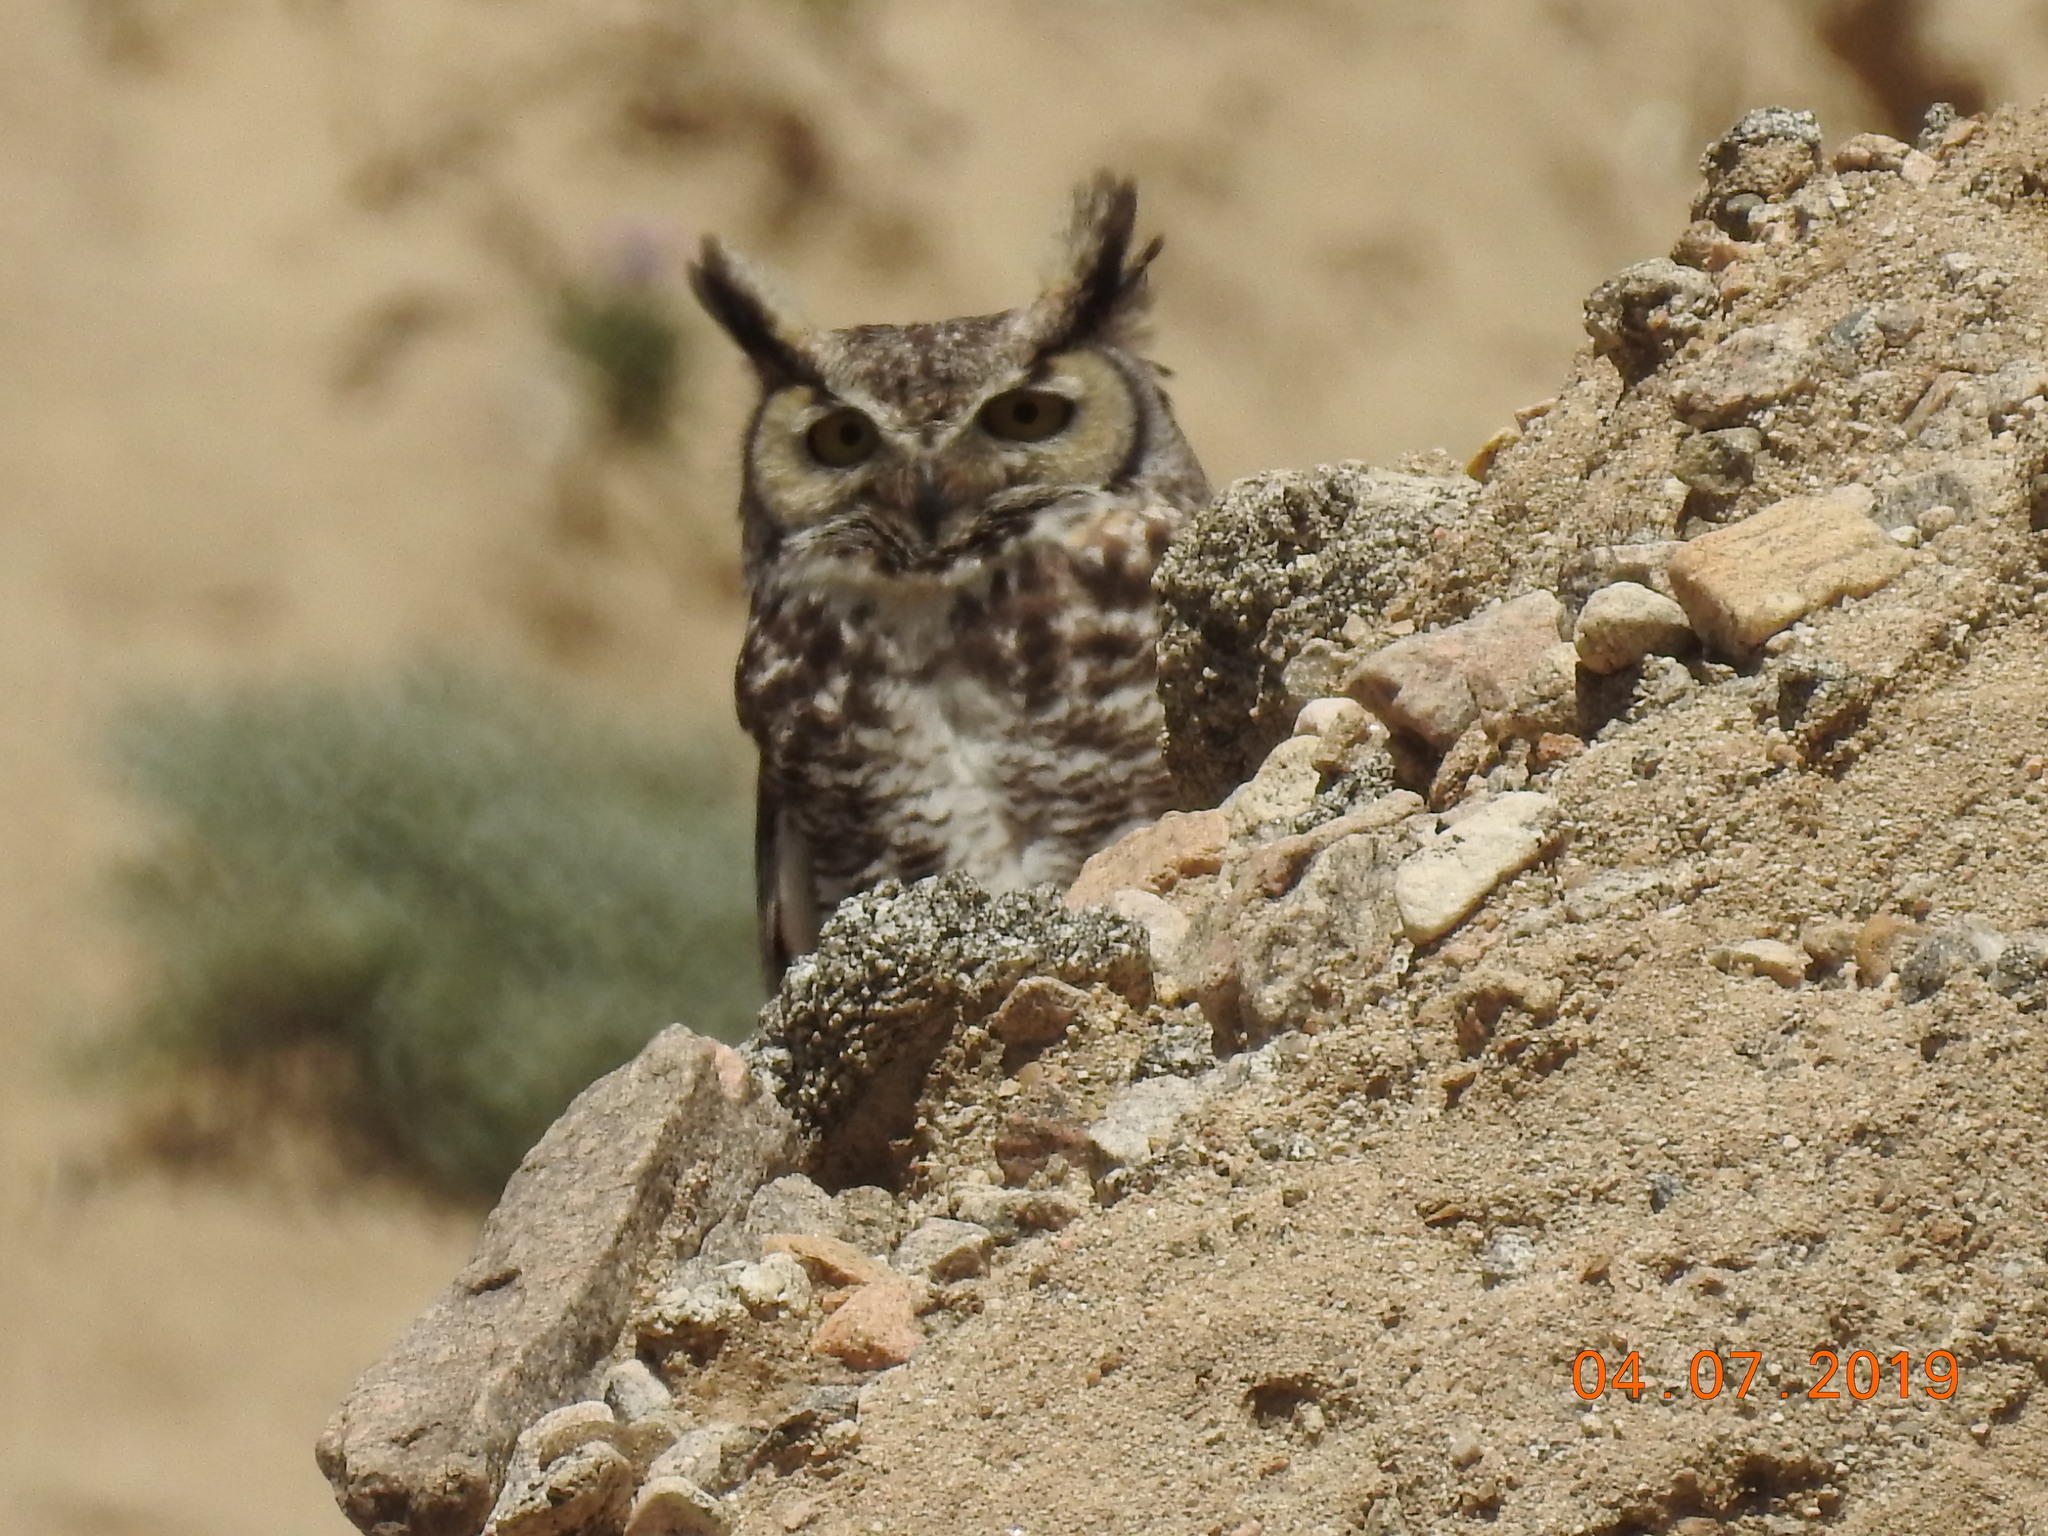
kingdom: Animalia
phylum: Chordata
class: Aves
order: Strigiformes
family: Strigidae
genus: Bubo
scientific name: Bubo virginianus
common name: Great horned owl
